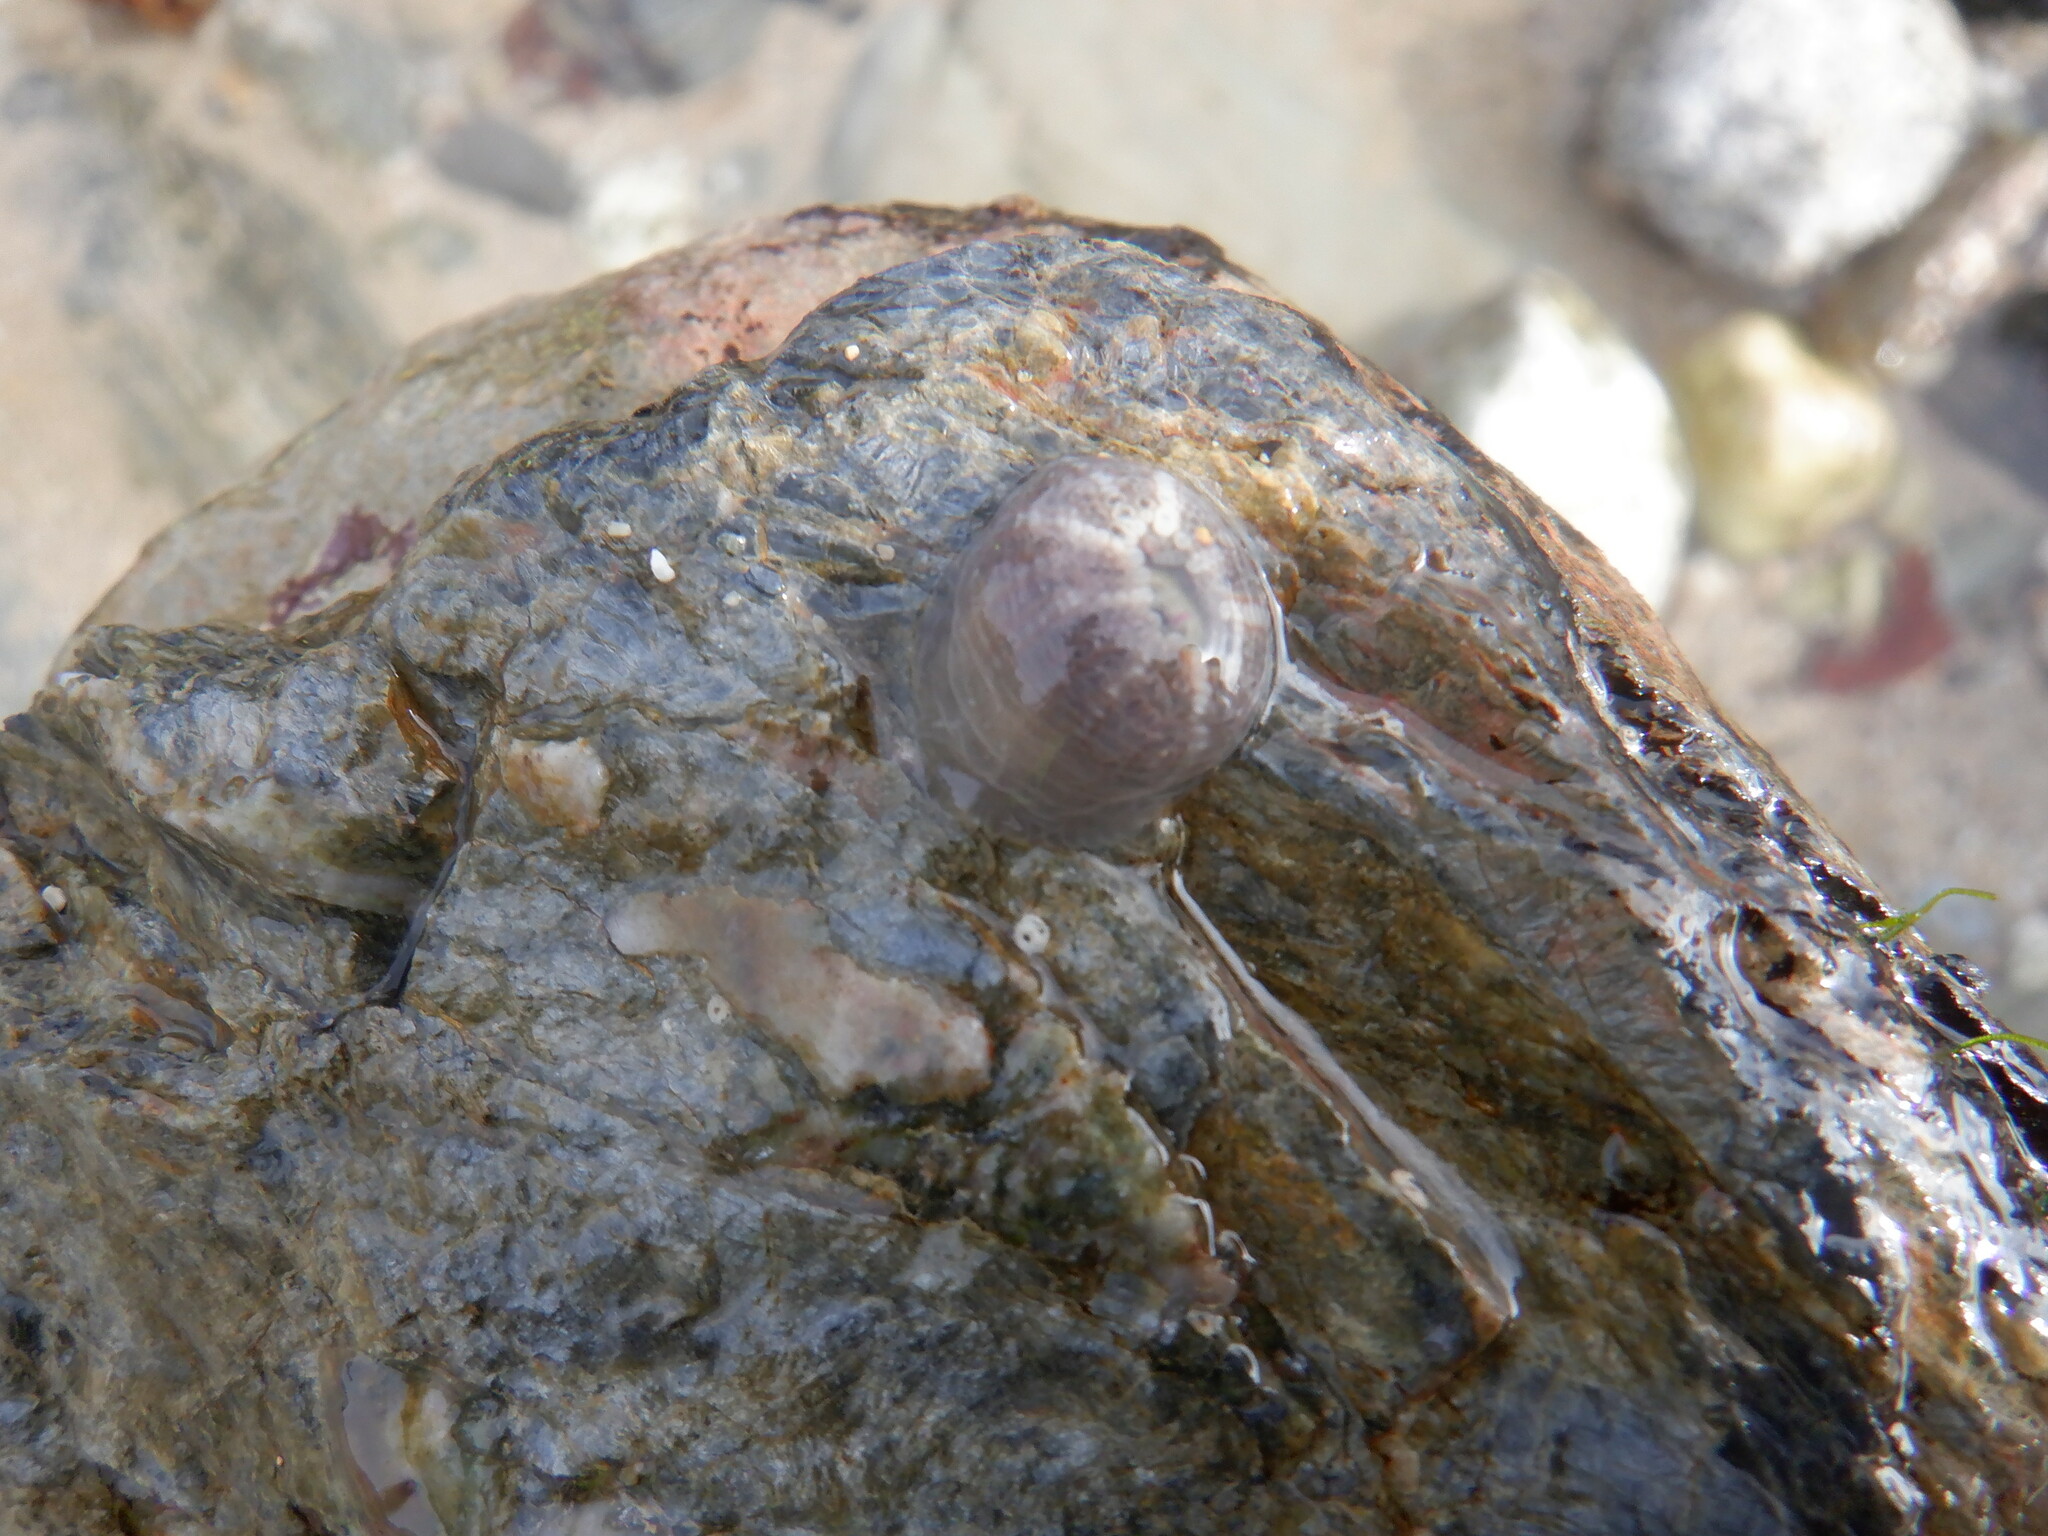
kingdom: Animalia
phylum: Cnidaria
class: Anthozoa
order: Actiniaria
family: Actiniidae
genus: Bunodactis
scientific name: Bunodactis verrucosa
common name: Gem anemone
